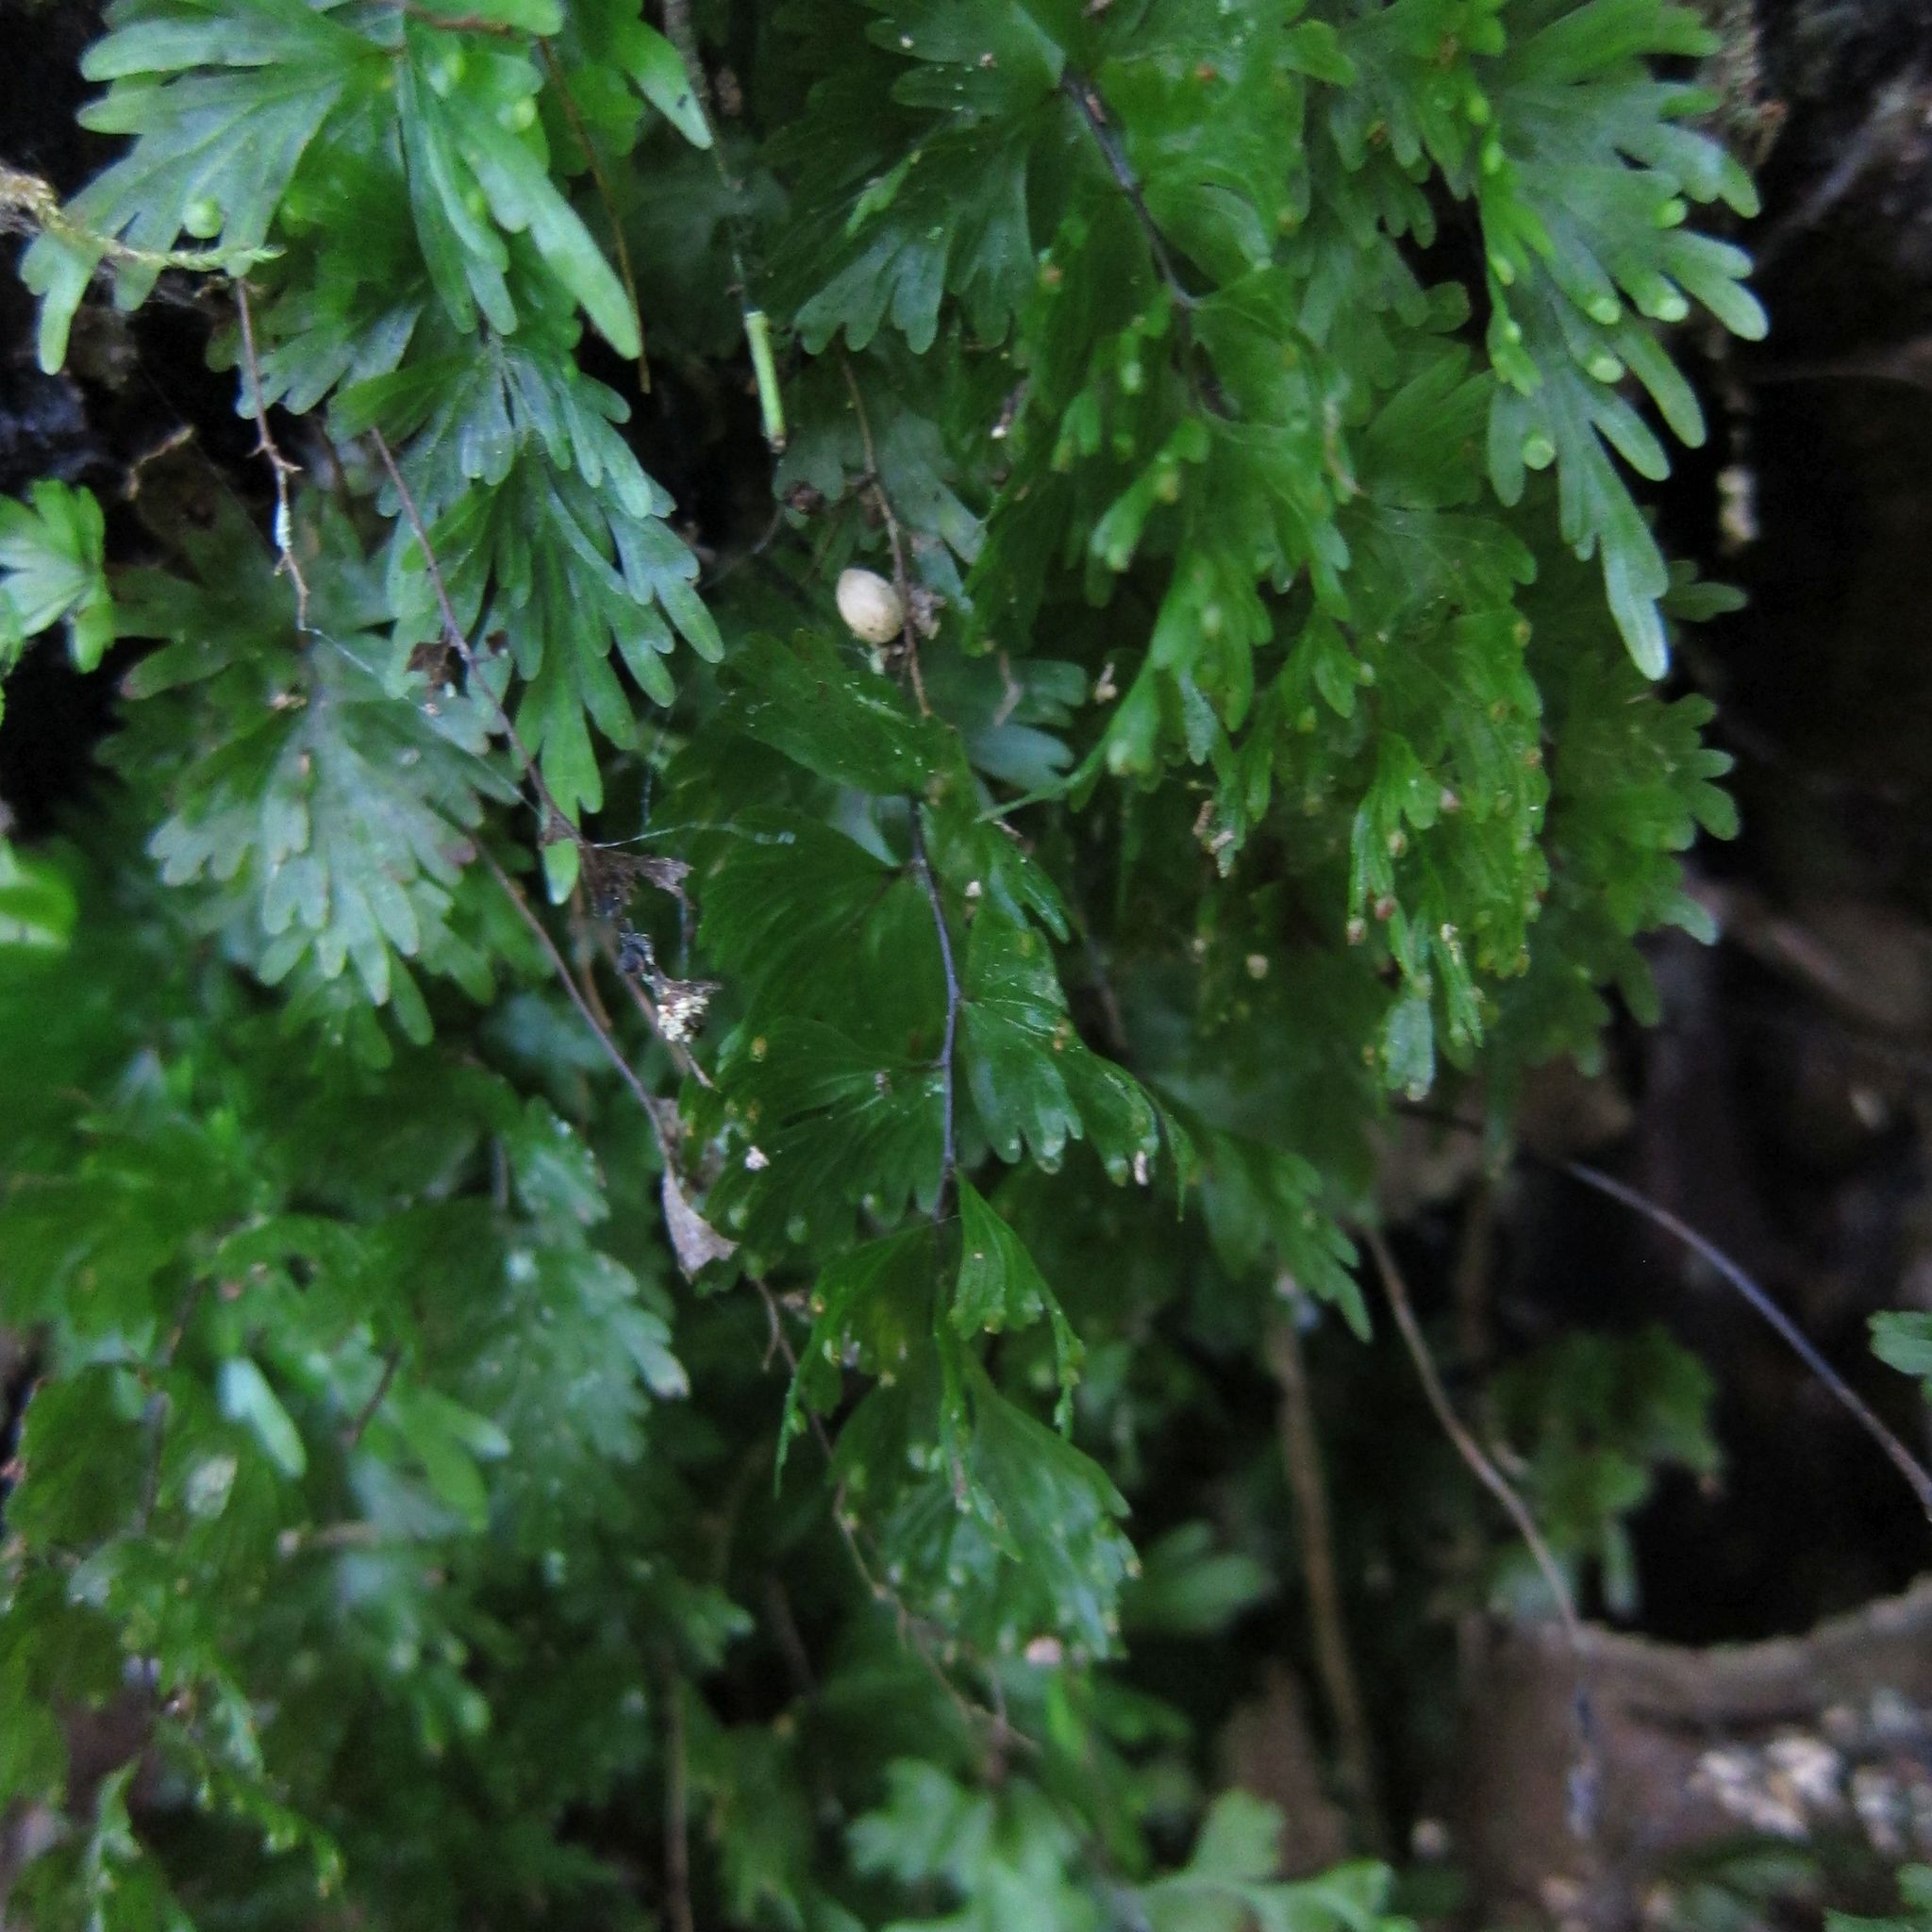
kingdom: Plantae
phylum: Tracheophyta
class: Polypodiopsida
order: Hymenophyllales
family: Hymenophyllaceae
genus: Hymenophyllum
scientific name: Hymenophyllum flabellatum
